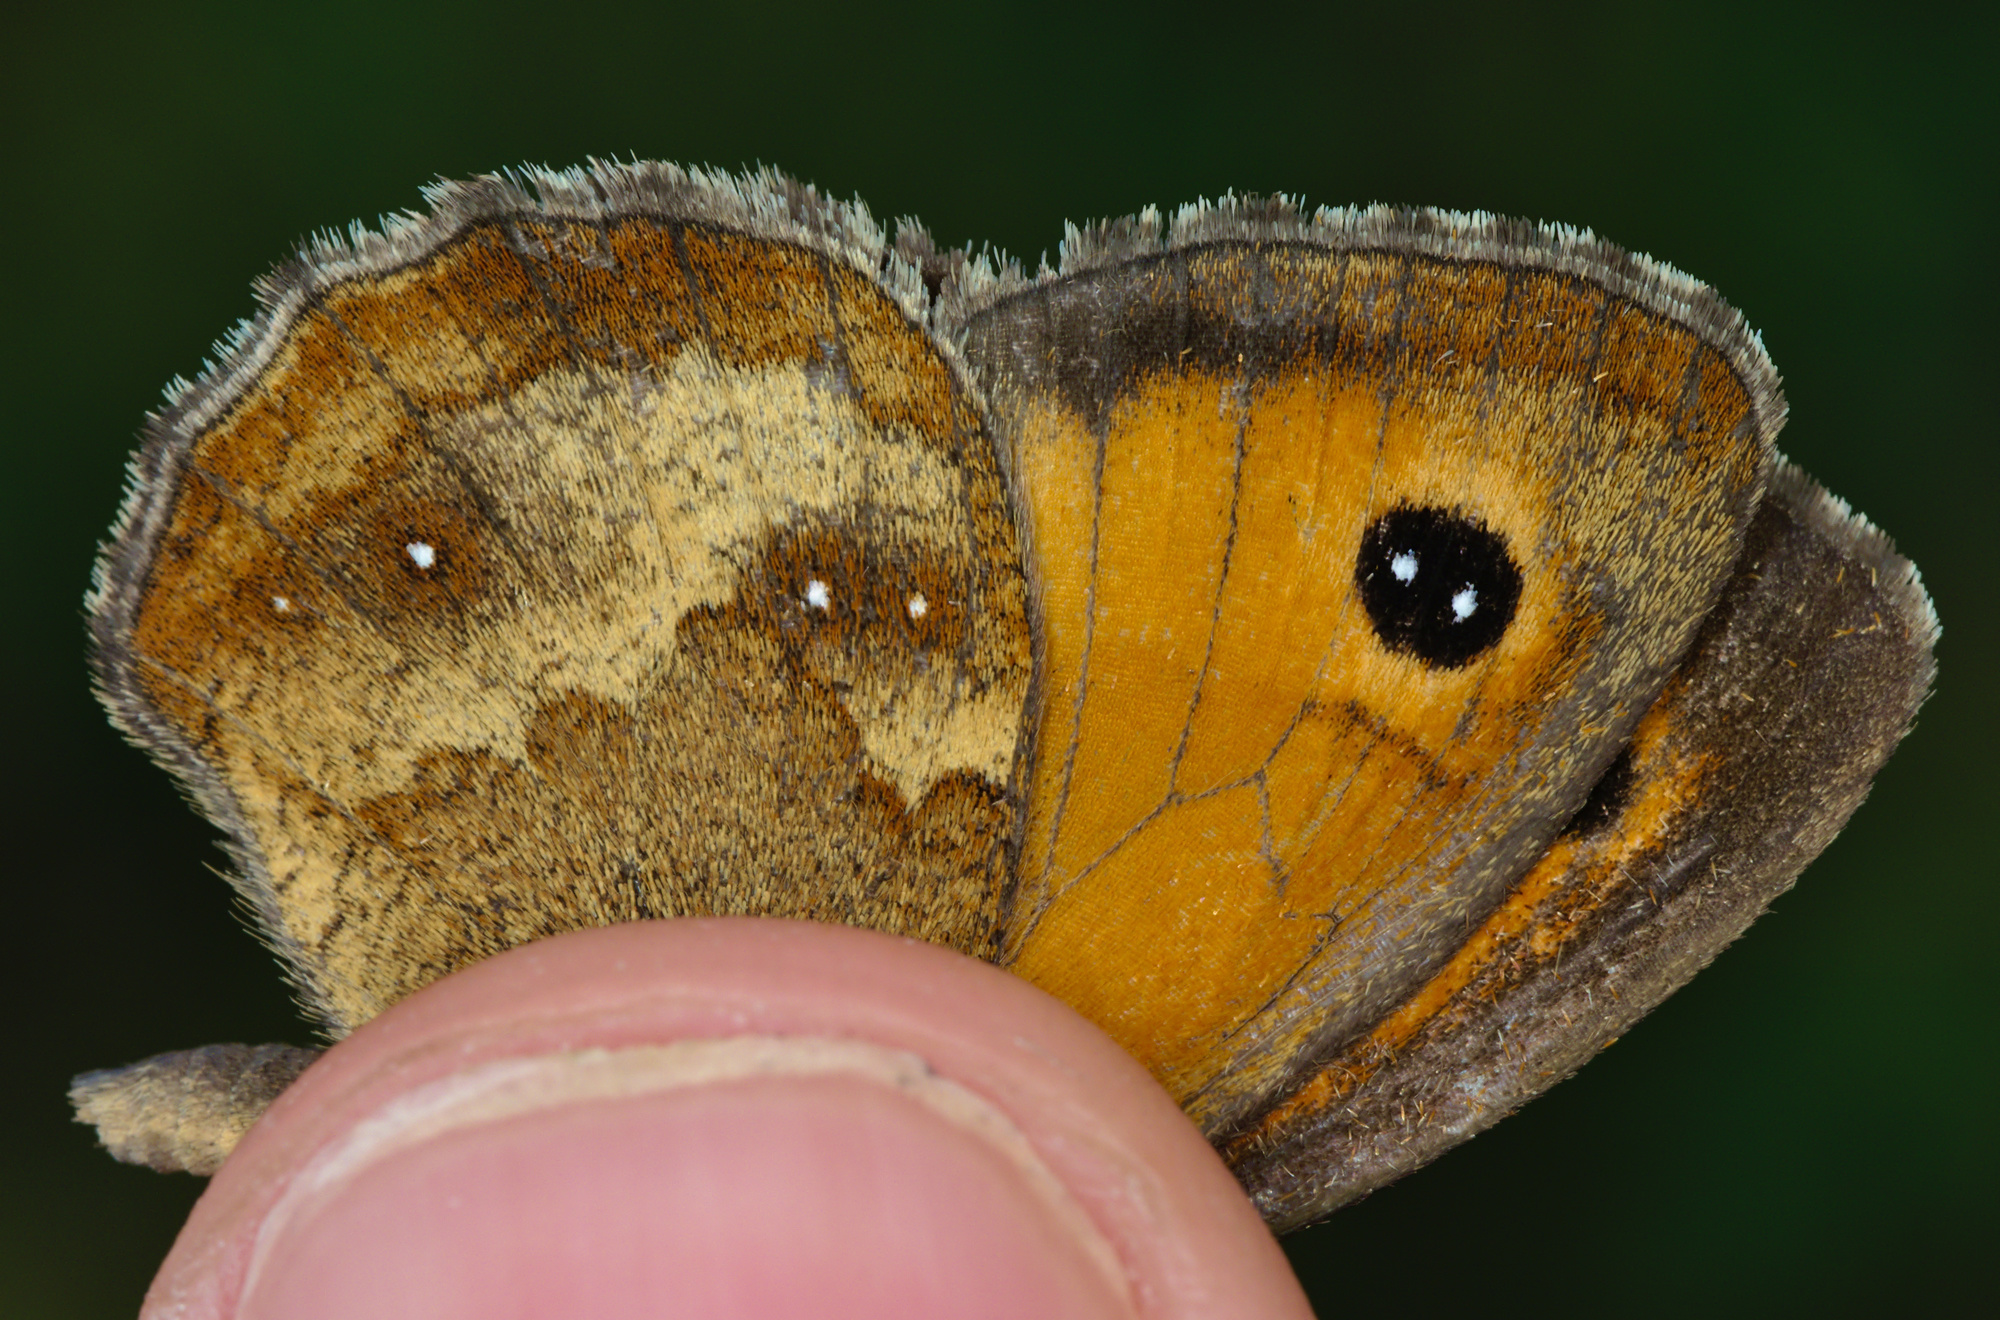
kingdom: Animalia
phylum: Arthropoda
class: Insecta
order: Lepidoptera
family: Nymphalidae
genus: Pyronia
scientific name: Pyronia tithonus
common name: Gatekeeper
